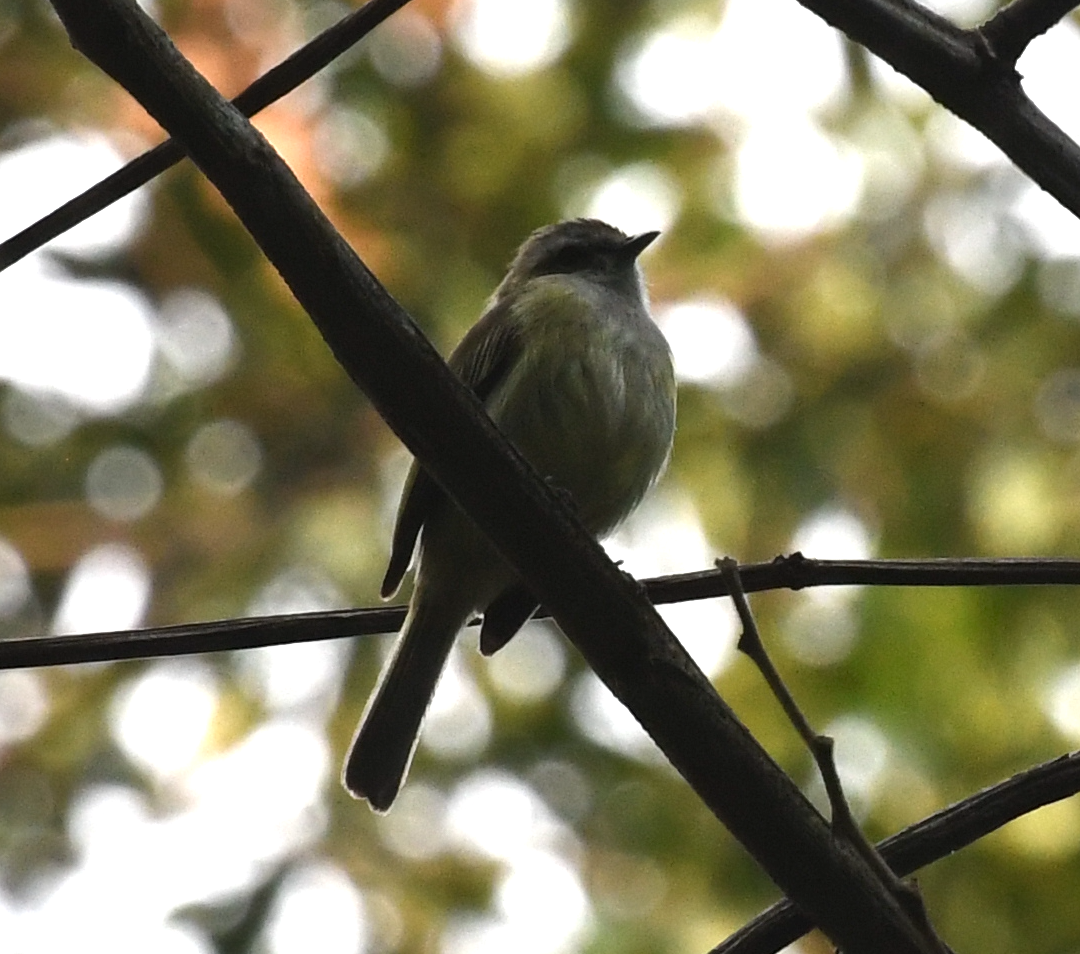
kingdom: Animalia
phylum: Chordata
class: Aves
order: Passeriformes
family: Tyrannidae
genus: Zimmerius
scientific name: Zimmerius vilissimus
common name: Paltry tyrannulet
